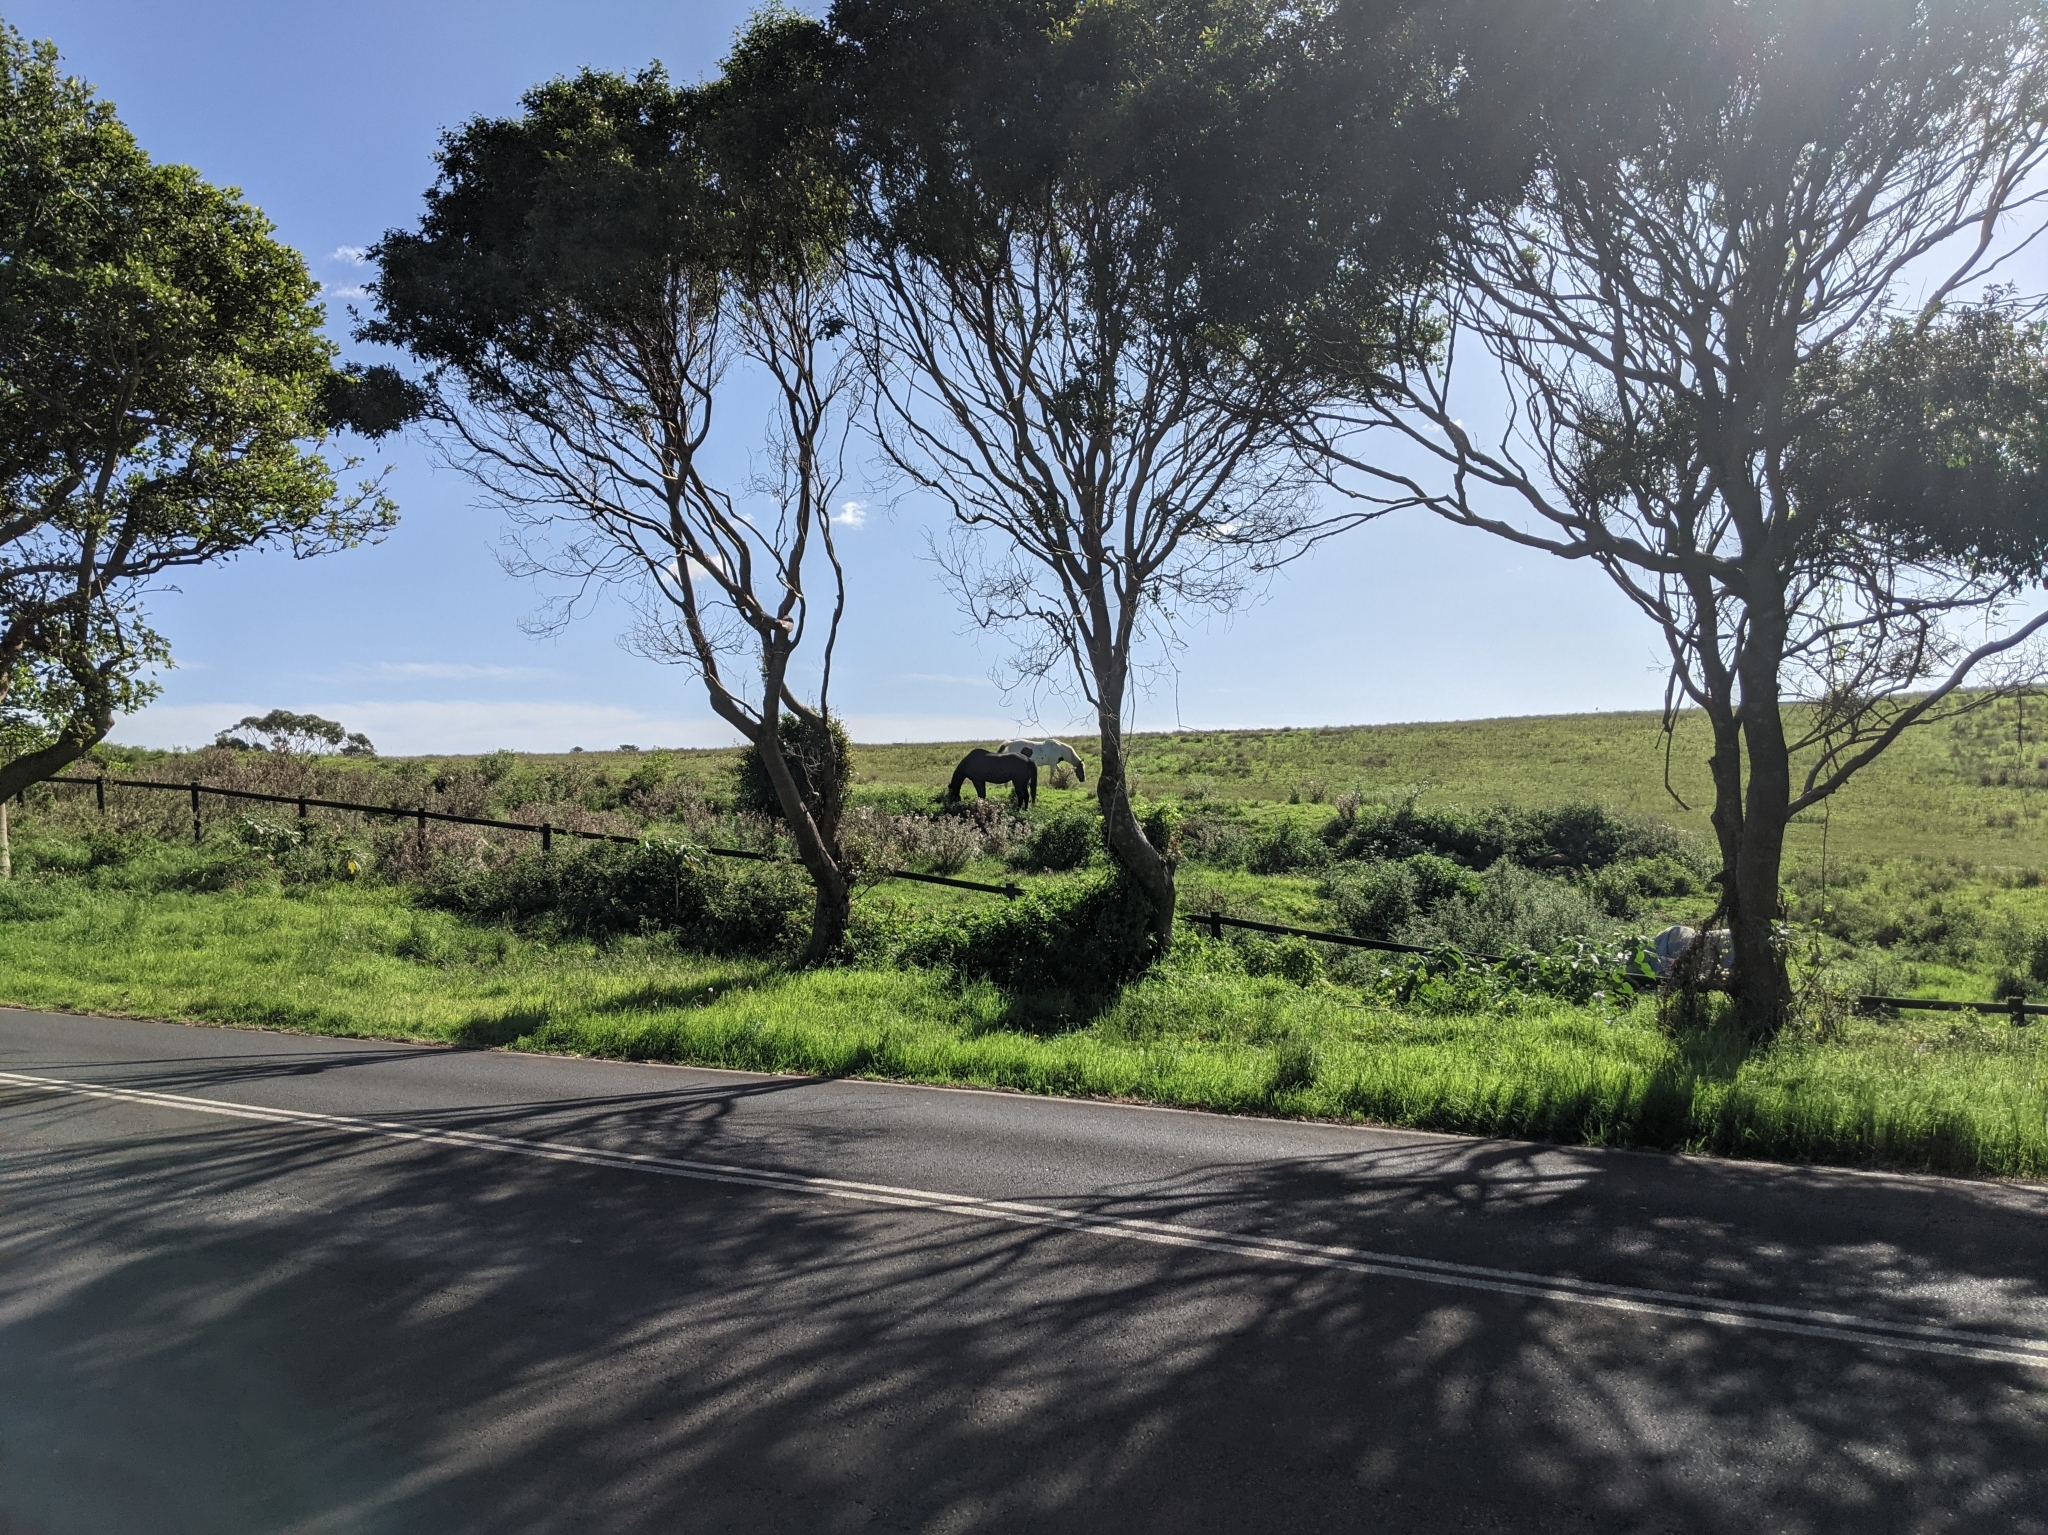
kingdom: Animalia
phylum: Chordata
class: Mammalia
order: Perissodactyla
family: Equidae
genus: Equus
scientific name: Equus caballus
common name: Horse
